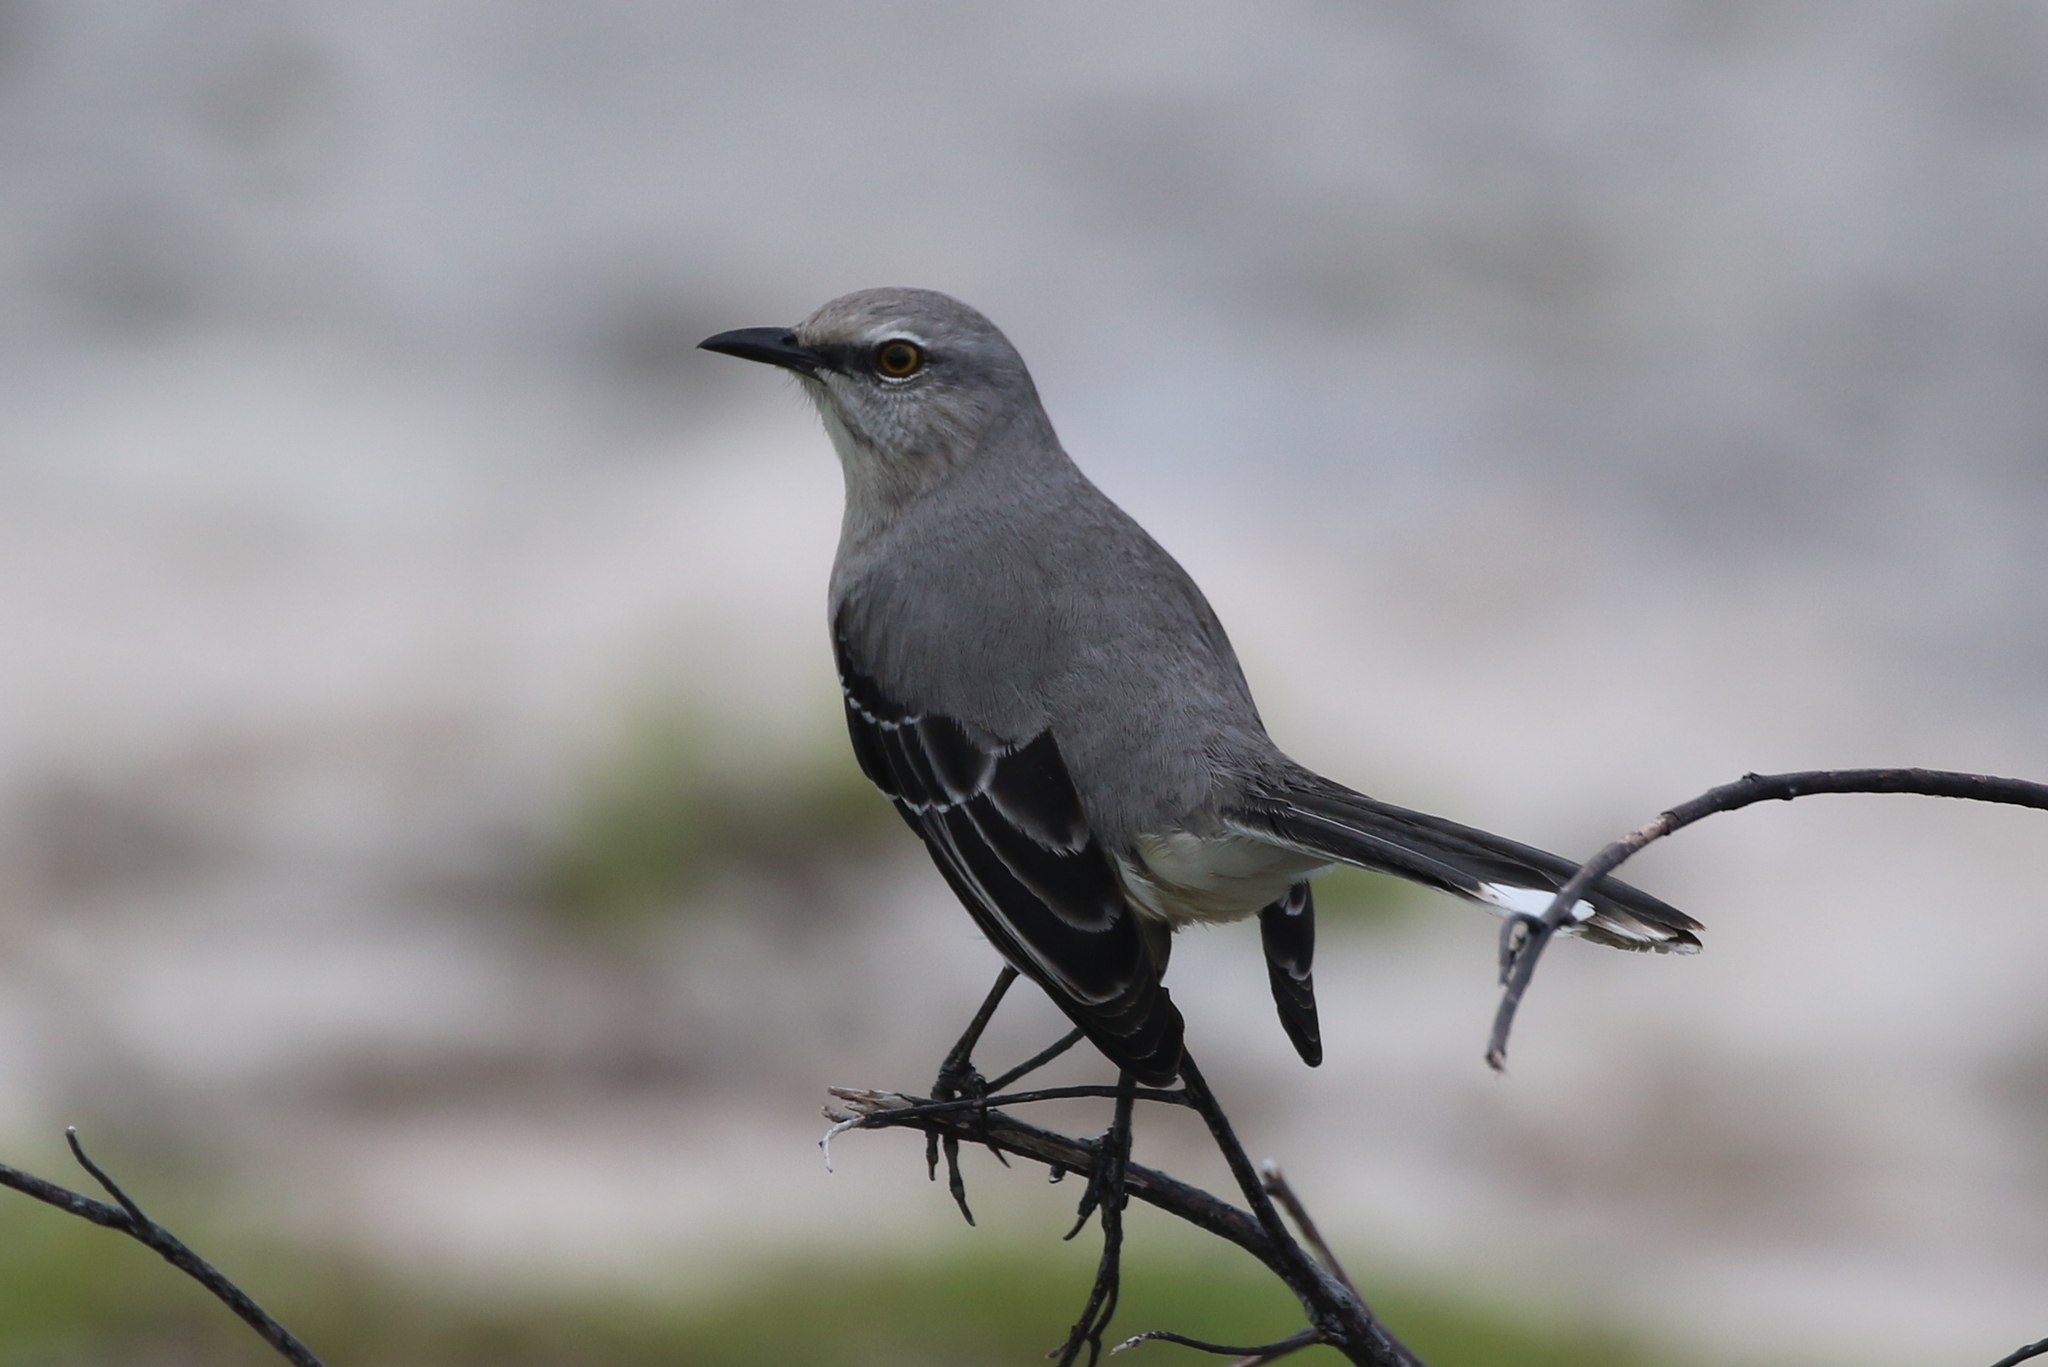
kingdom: Animalia
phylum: Chordata
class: Aves
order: Passeriformes
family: Mimidae
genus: Mimus
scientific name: Mimus gilvus
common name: Tropical mockingbird
